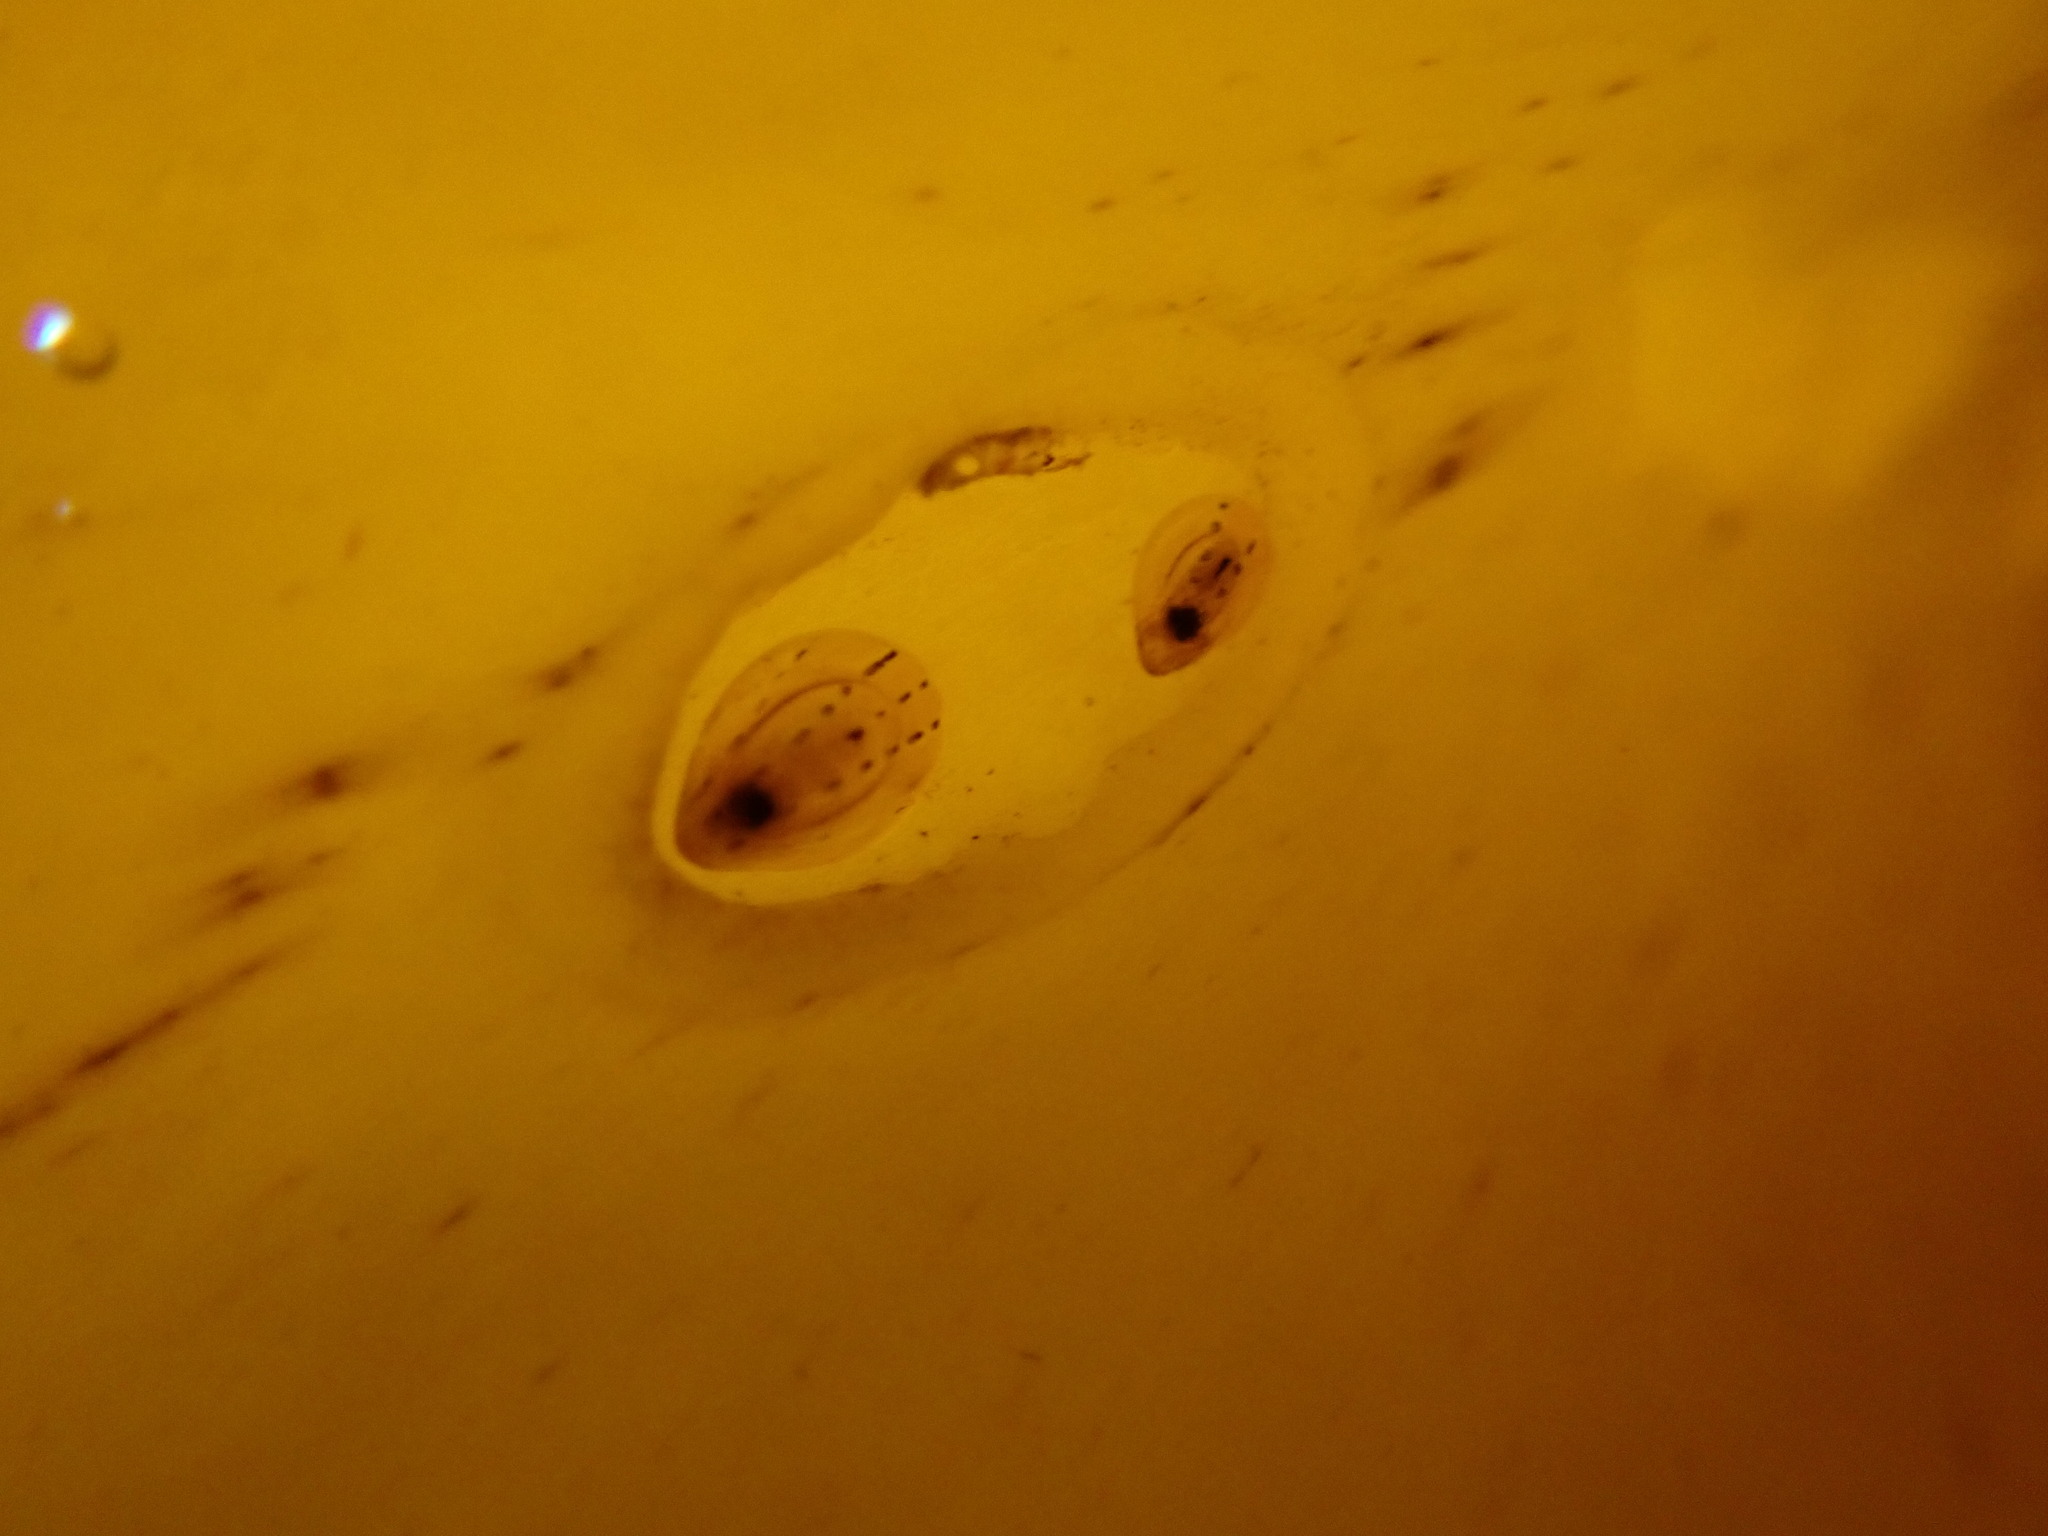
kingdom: Animalia
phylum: Mollusca
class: Gastropoda
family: Patellidae
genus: Patella
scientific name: Patella pellucida
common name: Blue-rayed limpet
